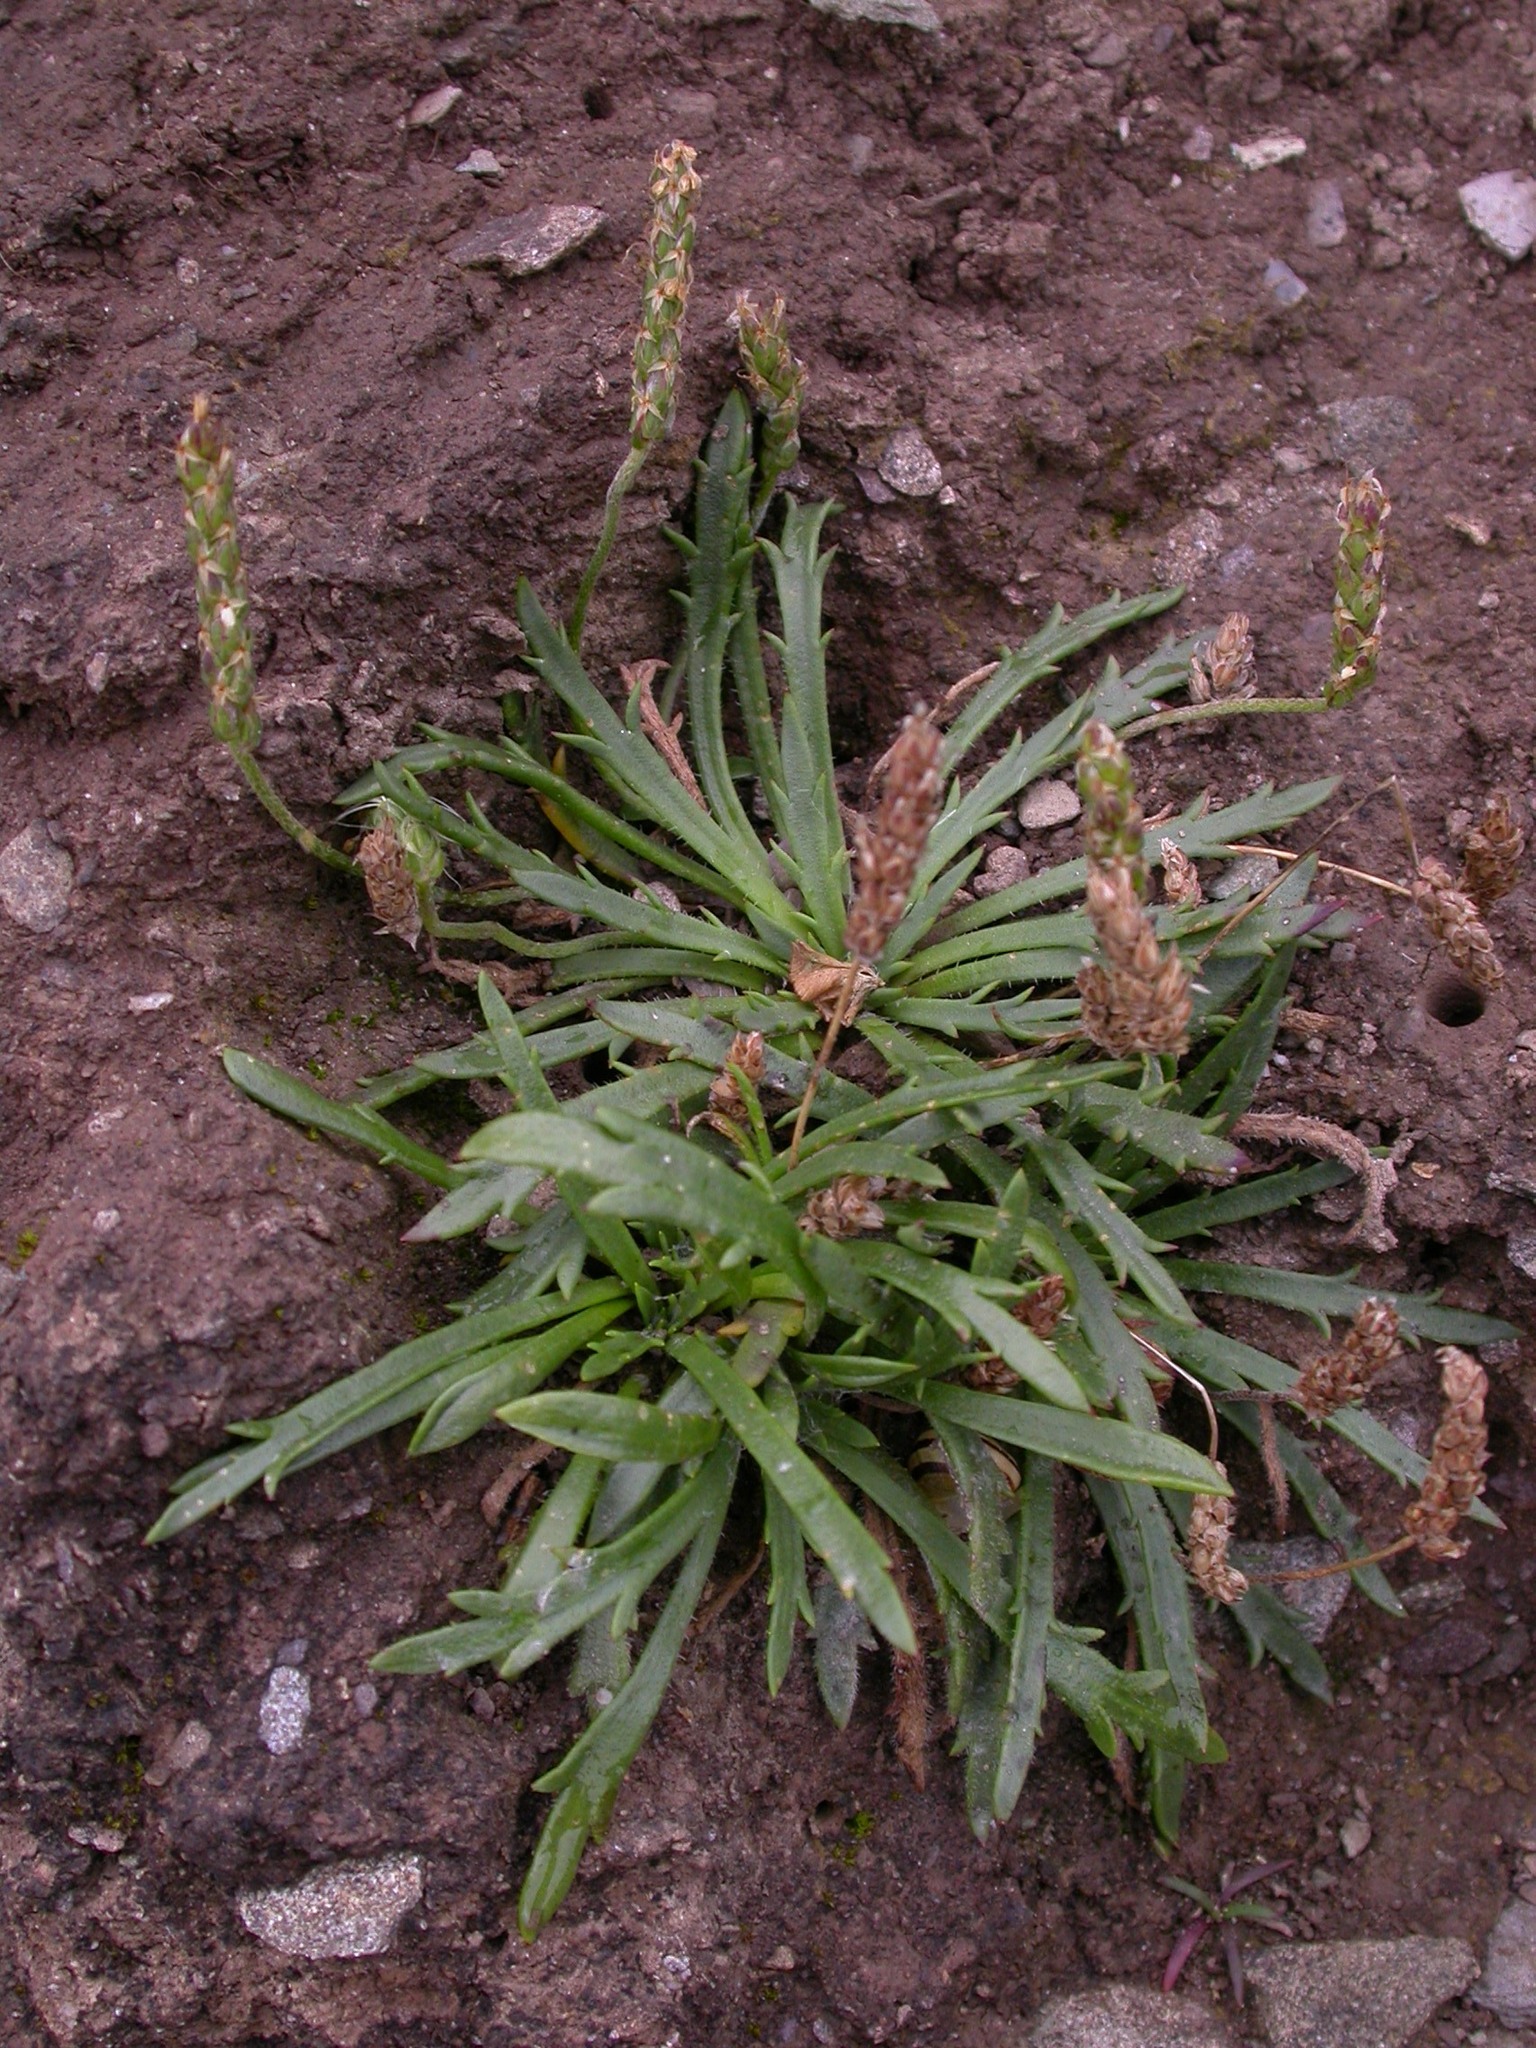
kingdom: Plantae
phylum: Tracheophyta
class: Magnoliopsida
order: Lamiales
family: Plantaginaceae
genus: Plantago
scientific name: Plantago coronopus
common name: Buck's-horn plantain
